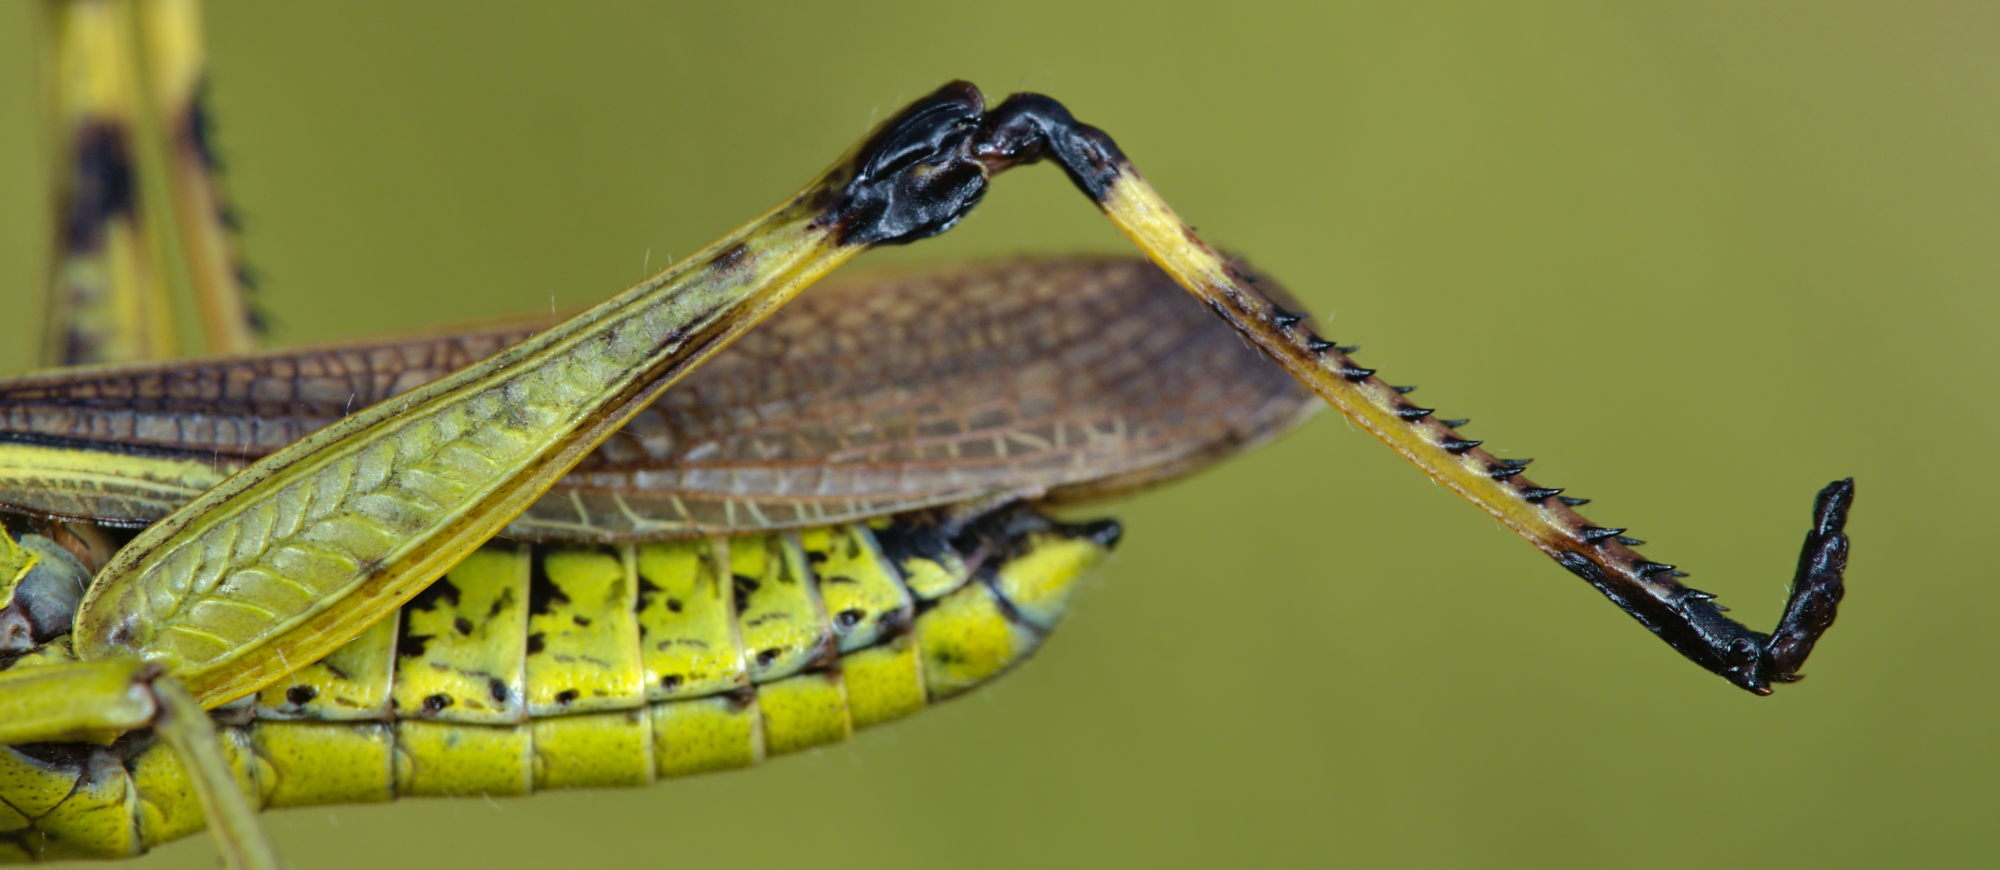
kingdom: Animalia
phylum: Arthropoda
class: Insecta
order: Orthoptera
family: Acrididae
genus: Stethophyma
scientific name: Stethophyma grossum
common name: Large marsh grasshopper
